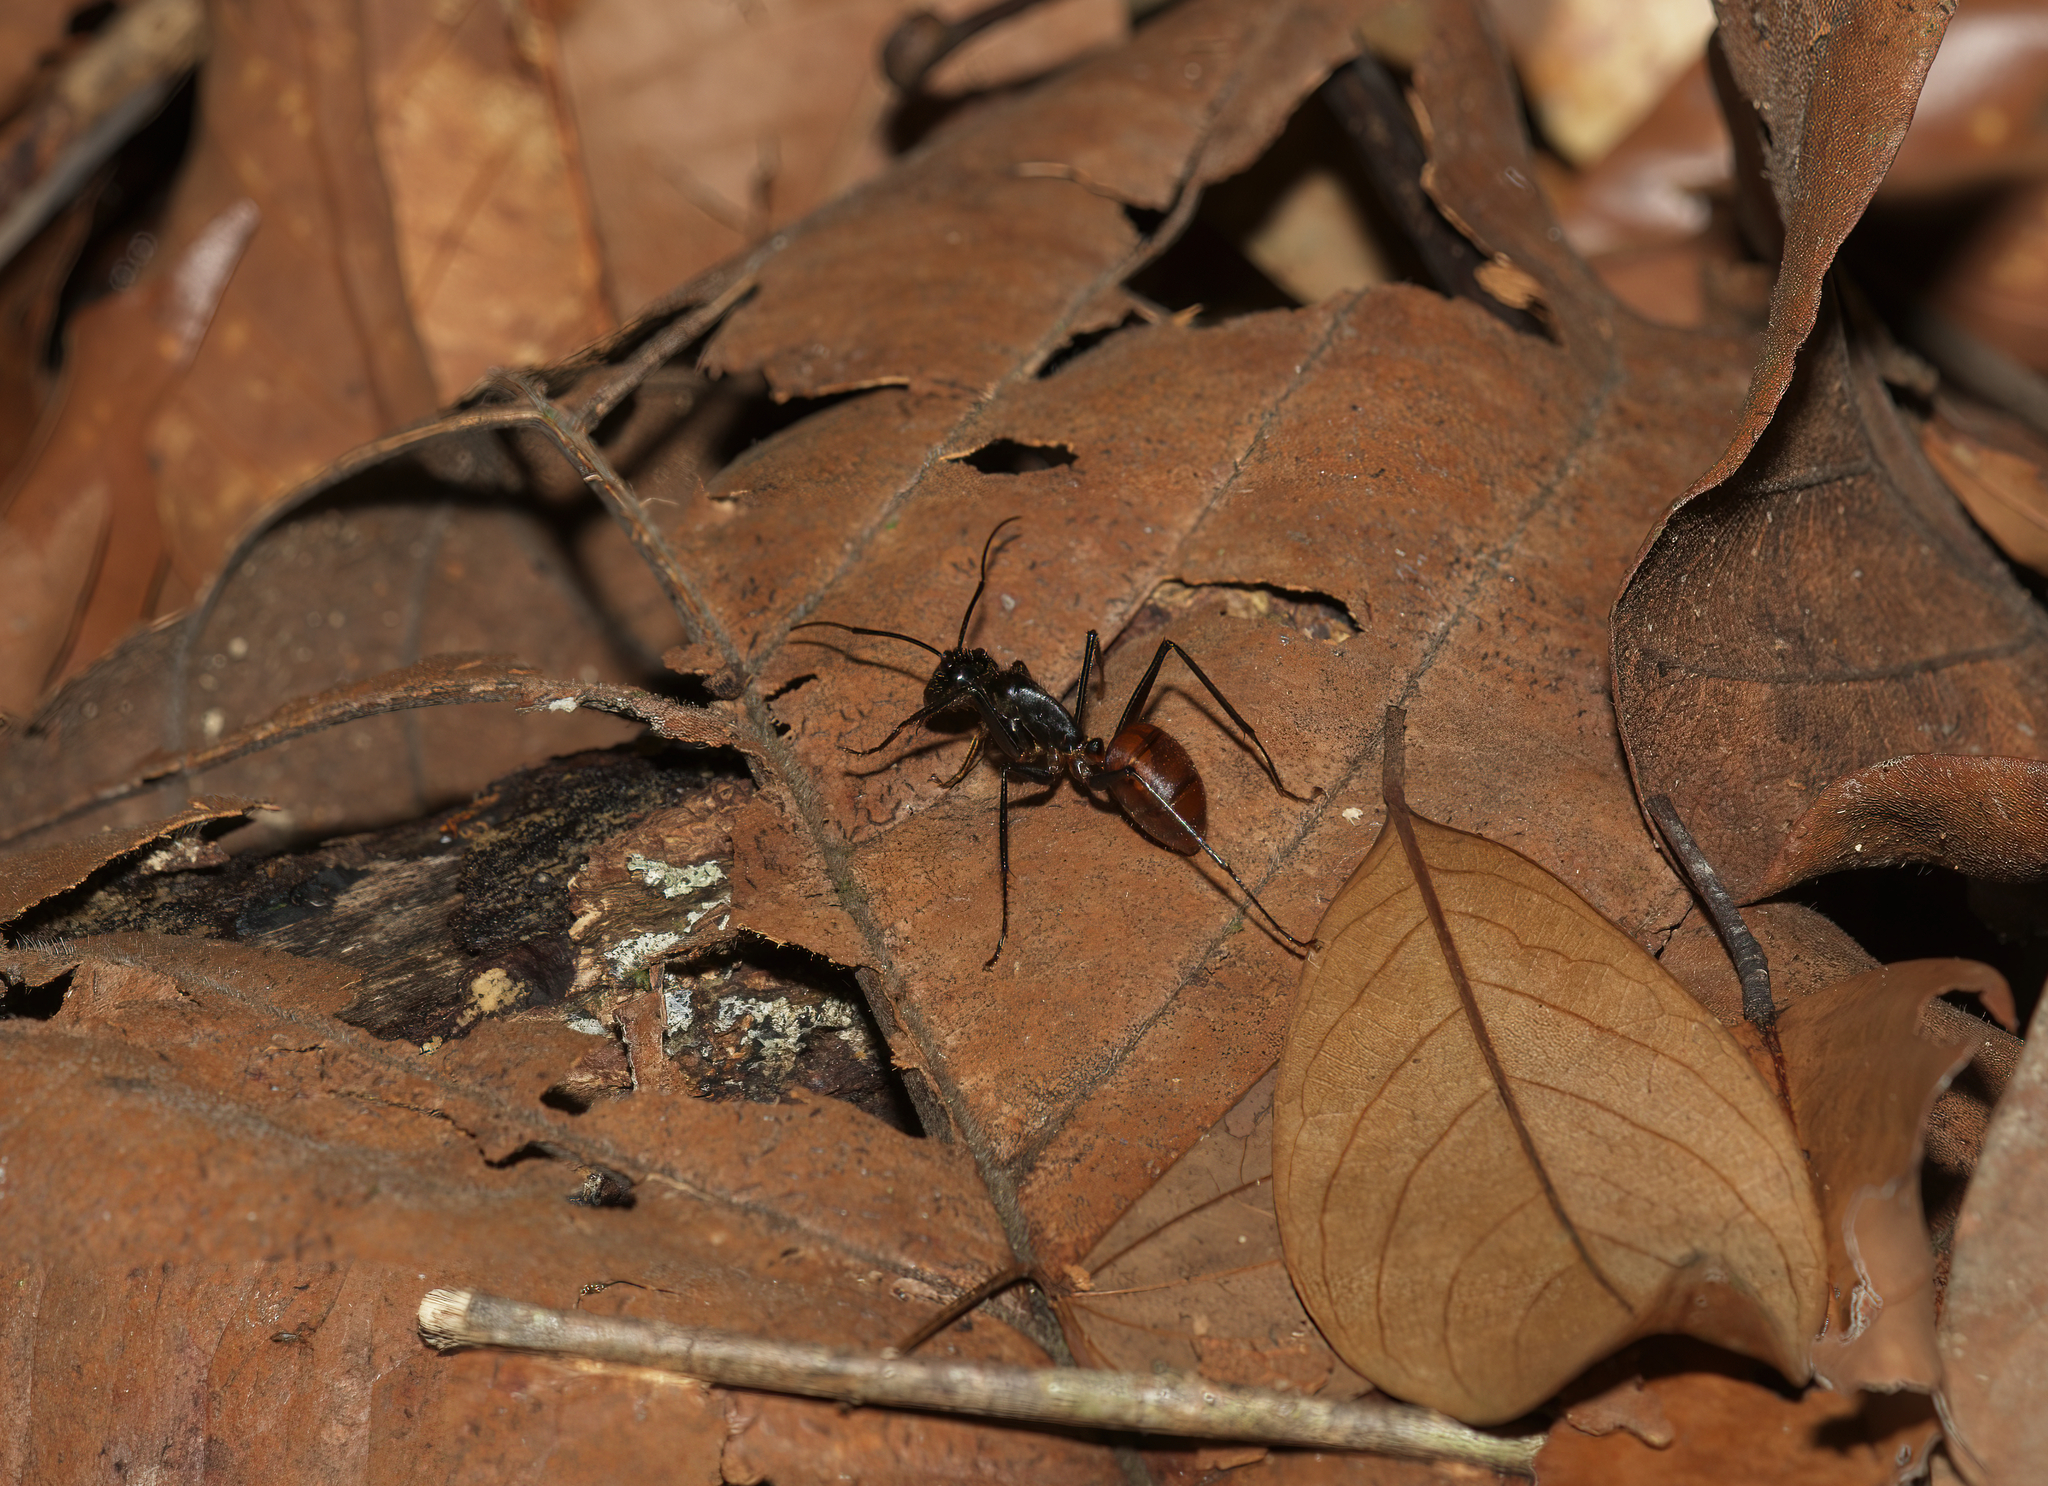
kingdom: Animalia
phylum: Arthropoda
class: Insecta
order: Hymenoptera
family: Formicidae
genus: Dinomyrmex
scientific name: Dinomyrmex
